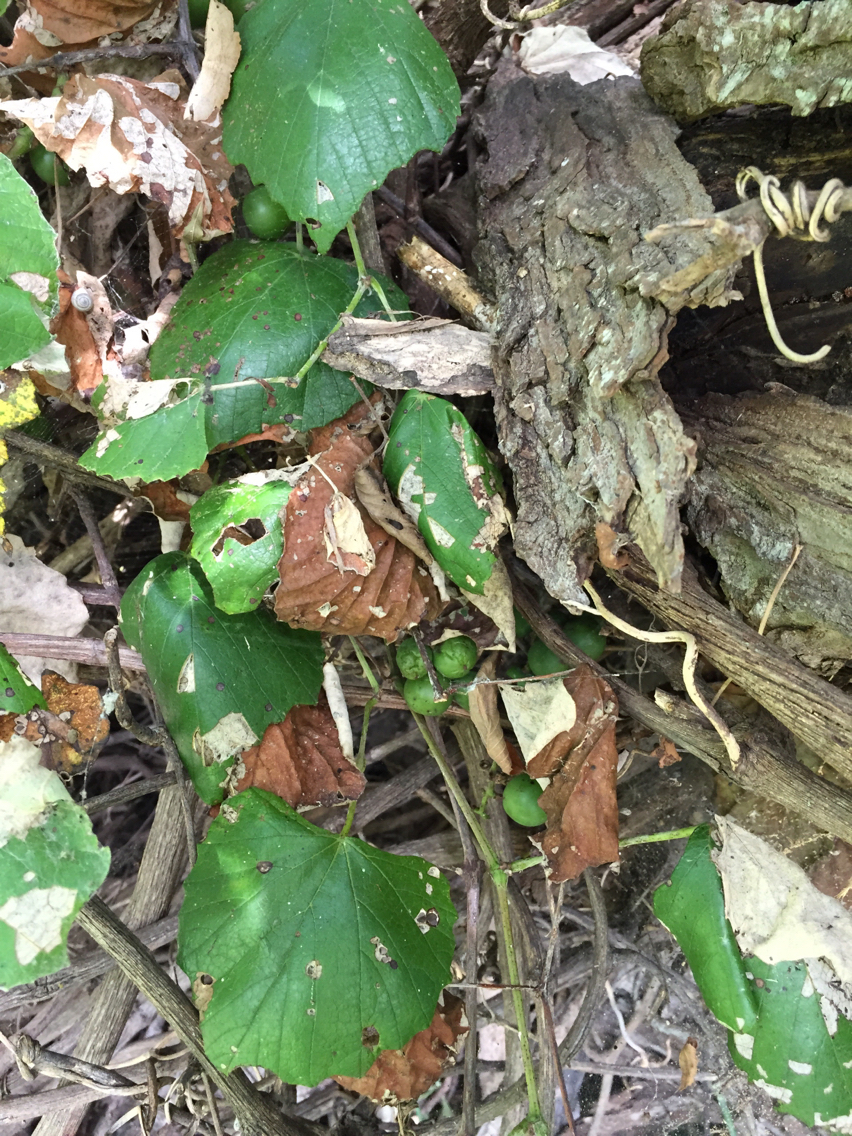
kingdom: Plantae
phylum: Tracheophyta
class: Magnoliopsida
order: Vitales
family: Vitaceae
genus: Vitis
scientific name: Vitis mustangensis
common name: Mustang grape
